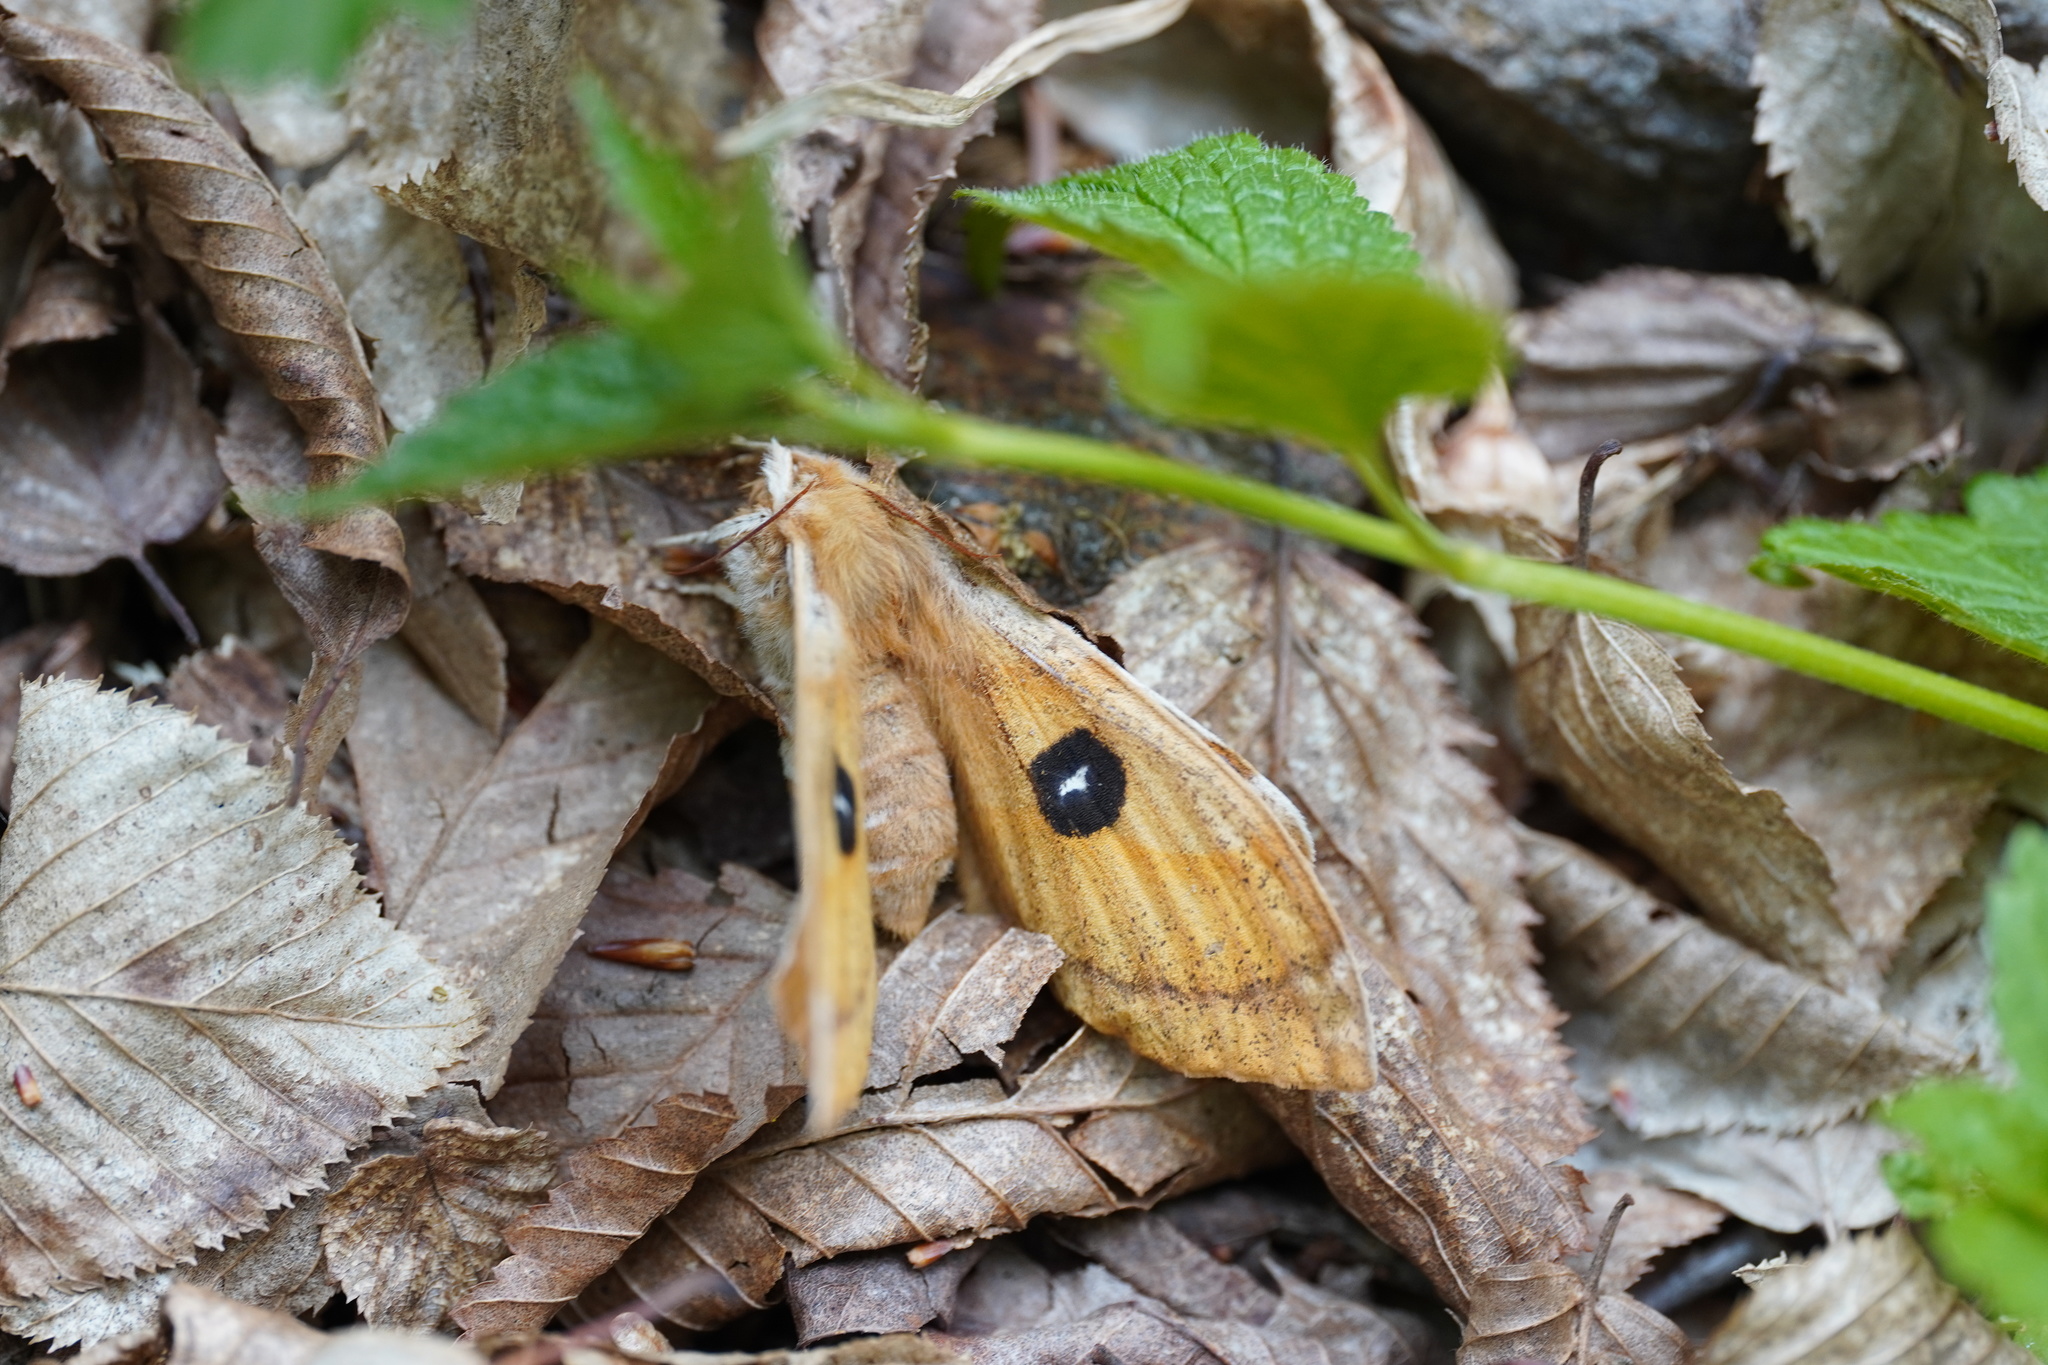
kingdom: Animalia
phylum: Arthropoda
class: Insecta
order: Lepidoptera
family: Saturniidae
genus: Aglia
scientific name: Aglia tau
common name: Tau emperor
